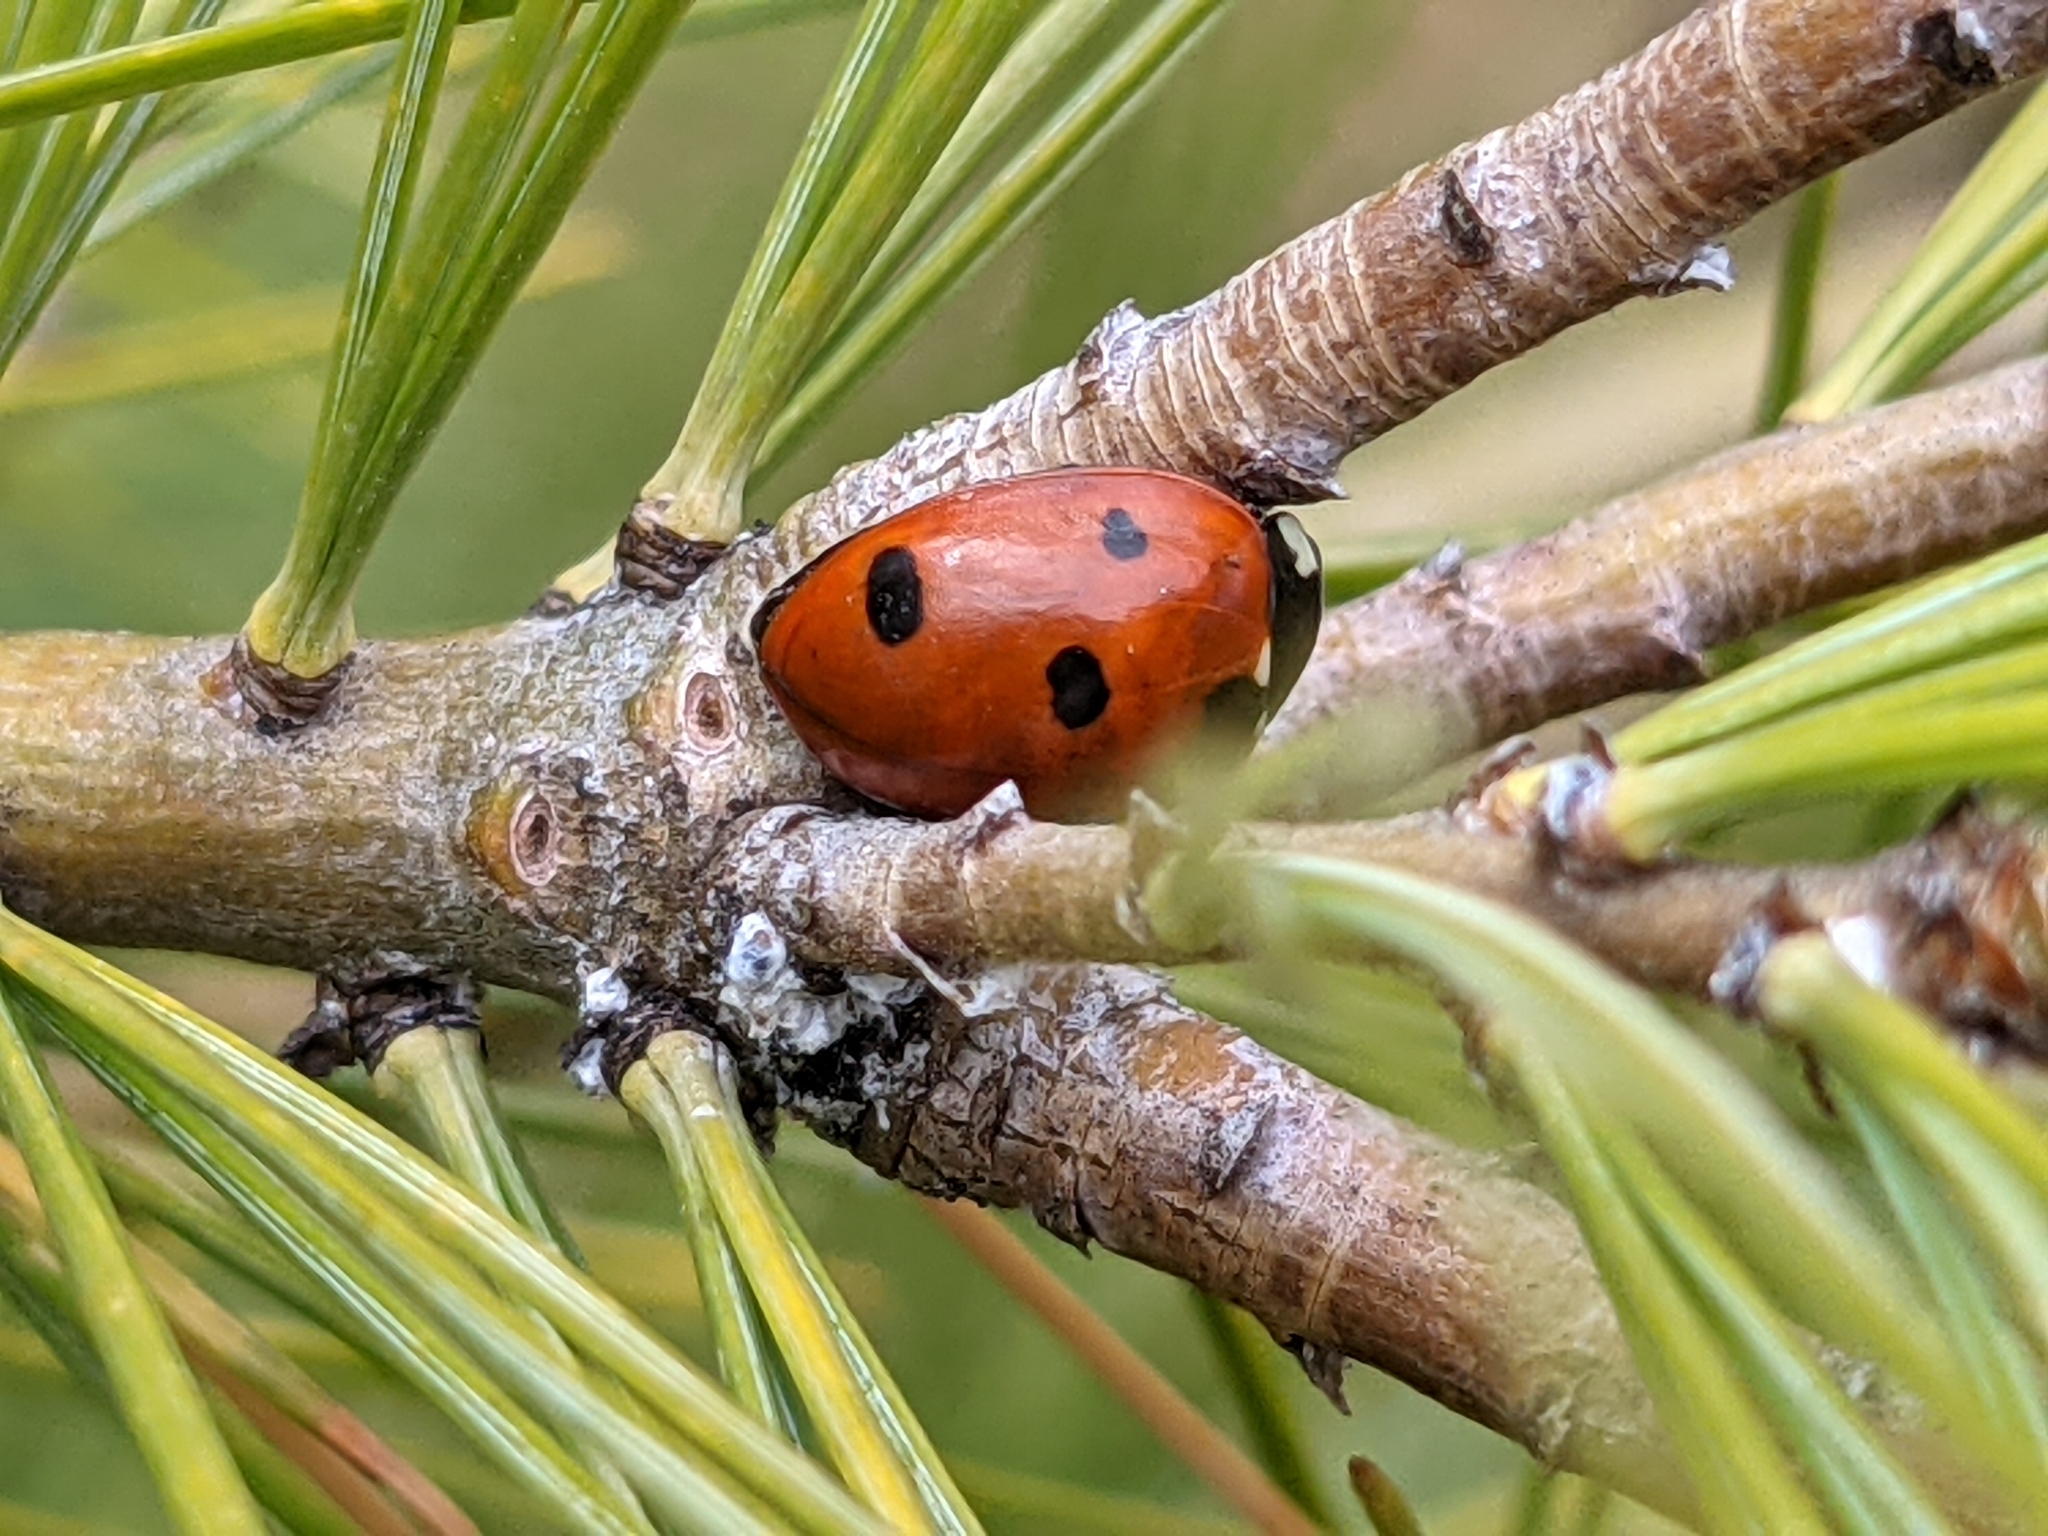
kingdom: Animalia
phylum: Arthropoda
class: Insecta
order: Coleoptera
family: Coccinellidae
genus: Coccinella
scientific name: Coccinella septempunctata
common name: Sevenspotted lady beetle
